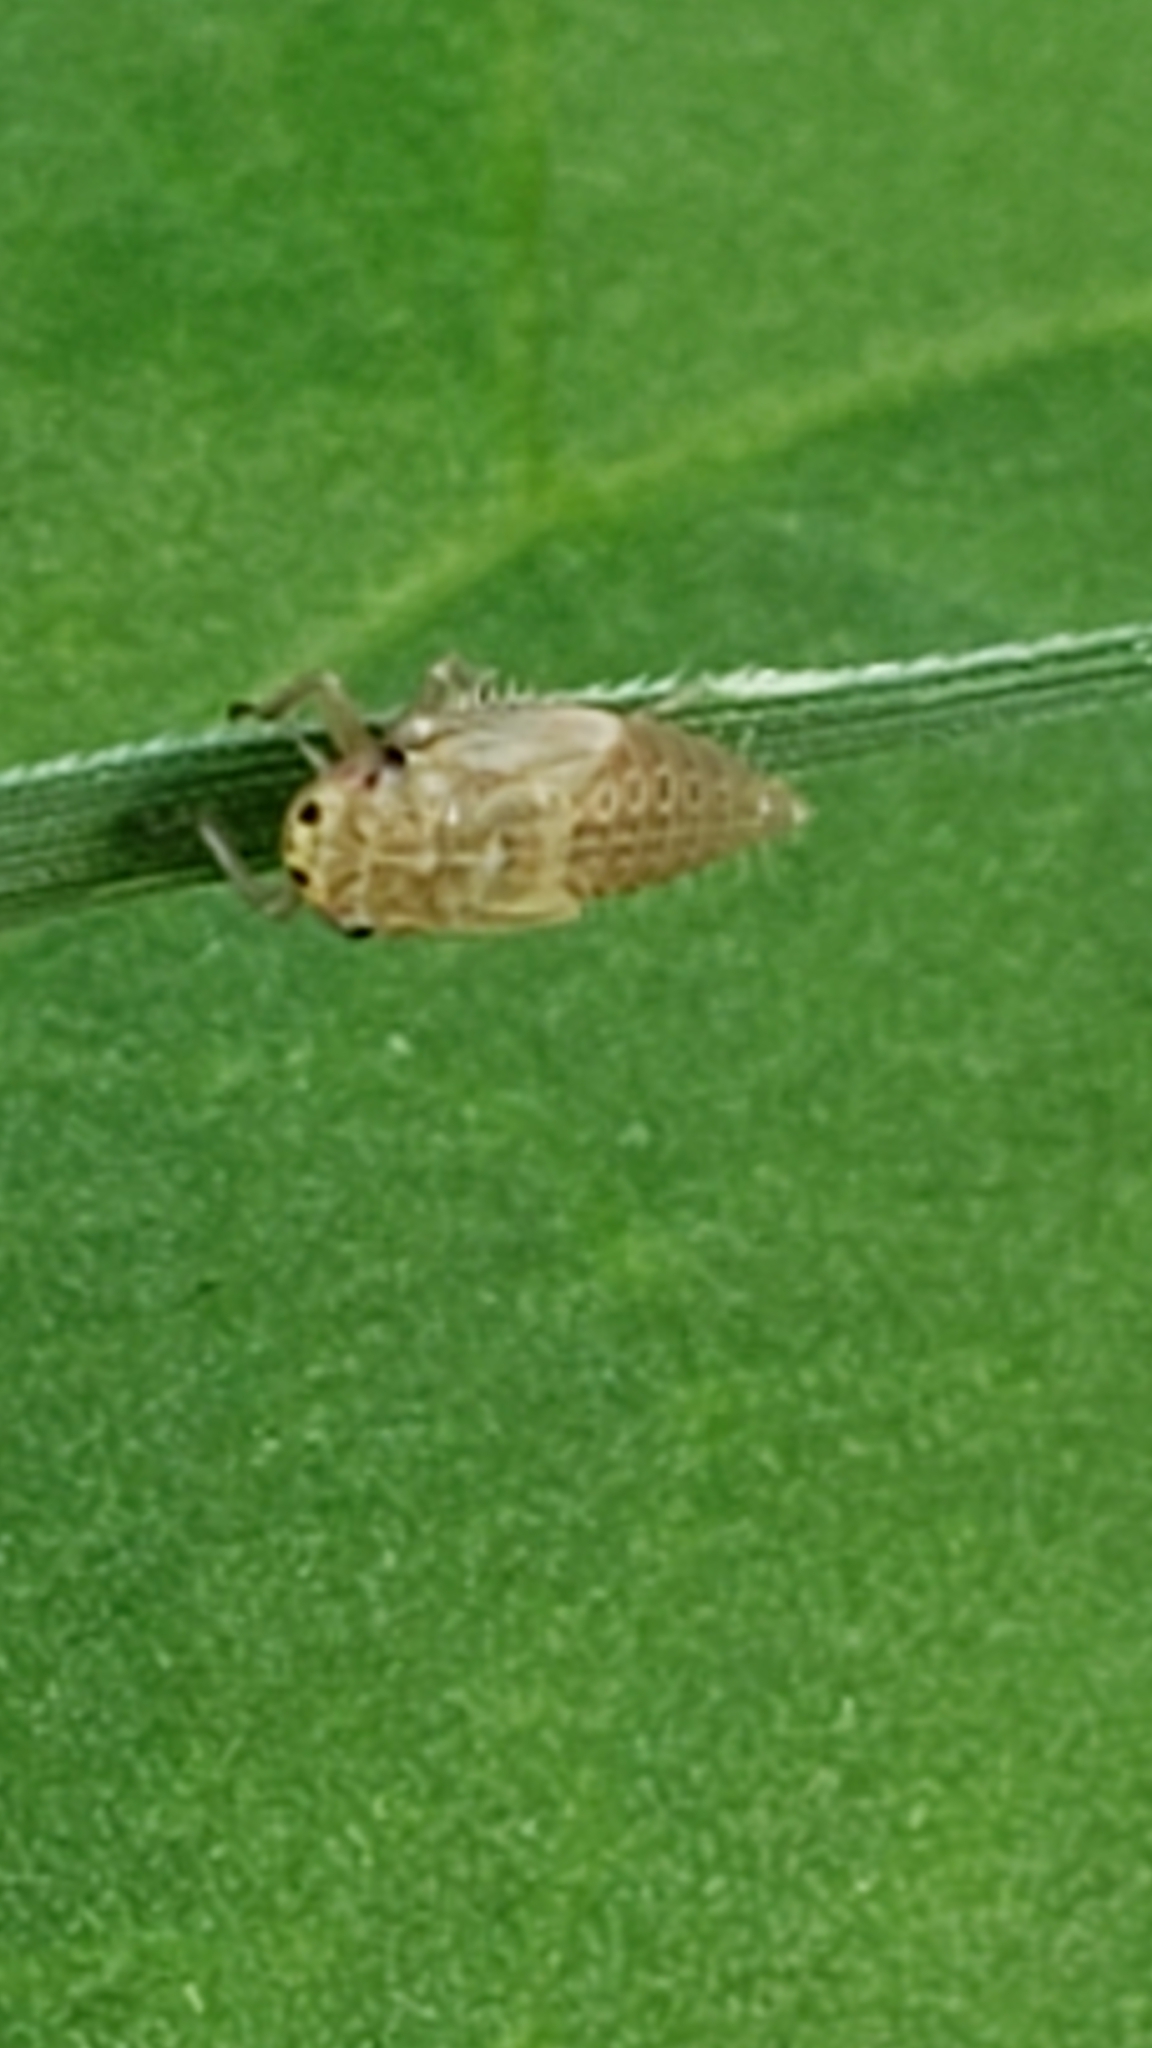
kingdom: Animalia
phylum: Arthropoda
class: Insecta
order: Hemiptera
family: Cicadellidae
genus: Exitianus
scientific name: Exitianus exitiosus
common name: Gray lawn leafhopper
